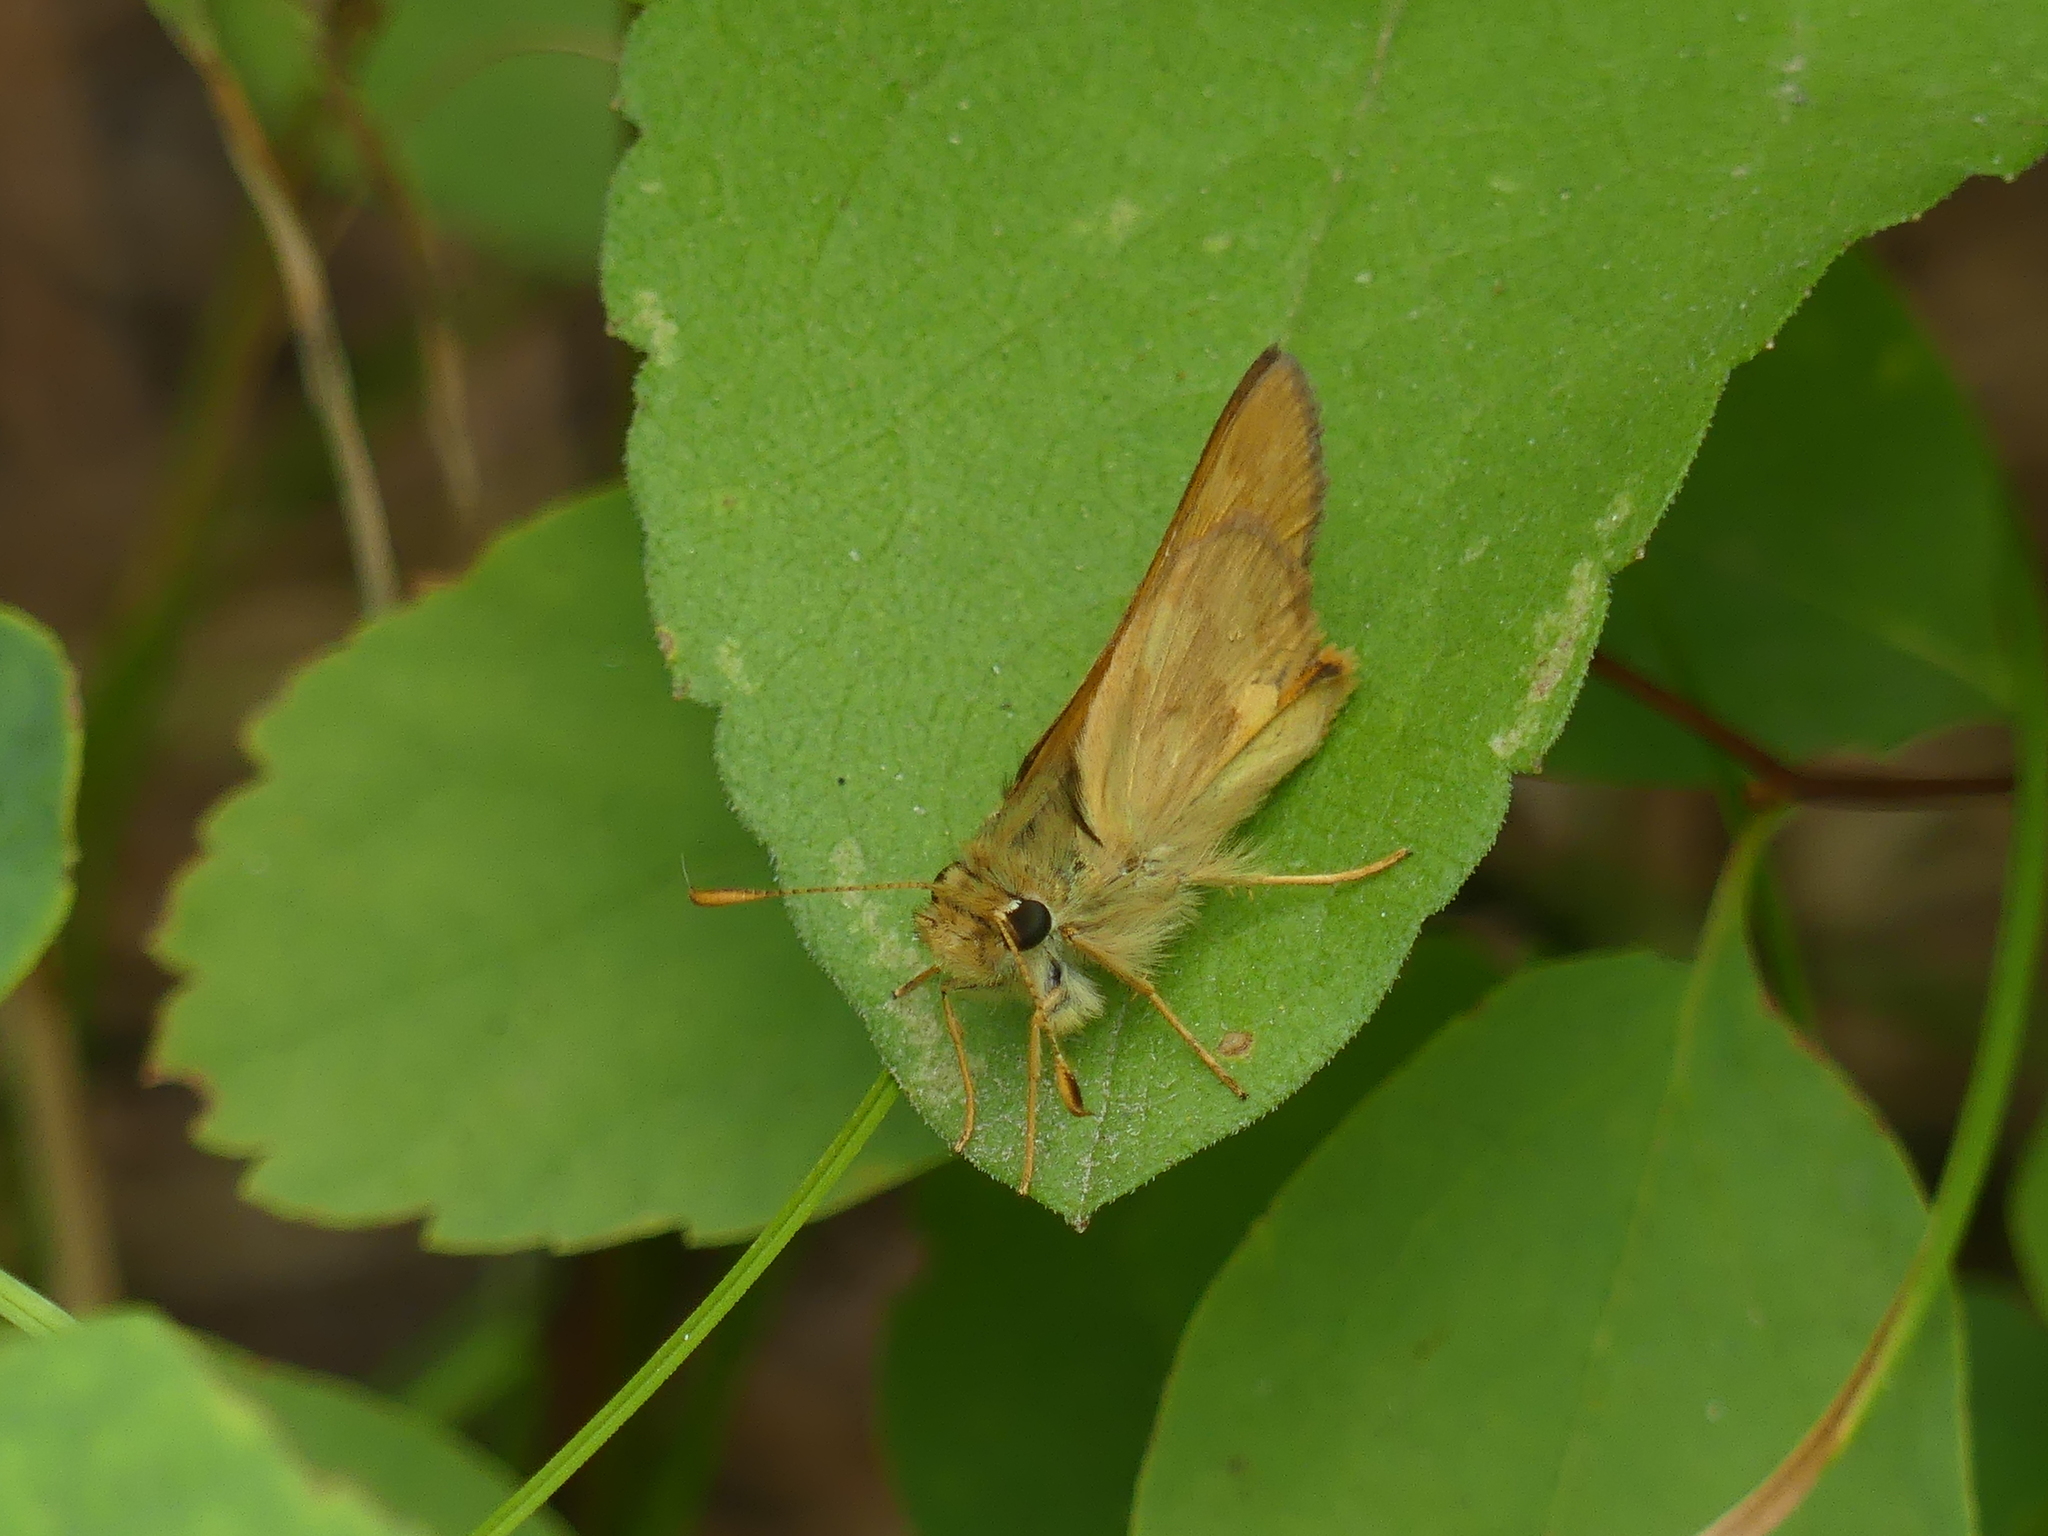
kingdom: Animalia
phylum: Arthropoda
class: Insecta
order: Lepidoptera
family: Hesperiidae
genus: Ochlodes
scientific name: Ochlodes sylvanoides
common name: Woodland skipper
